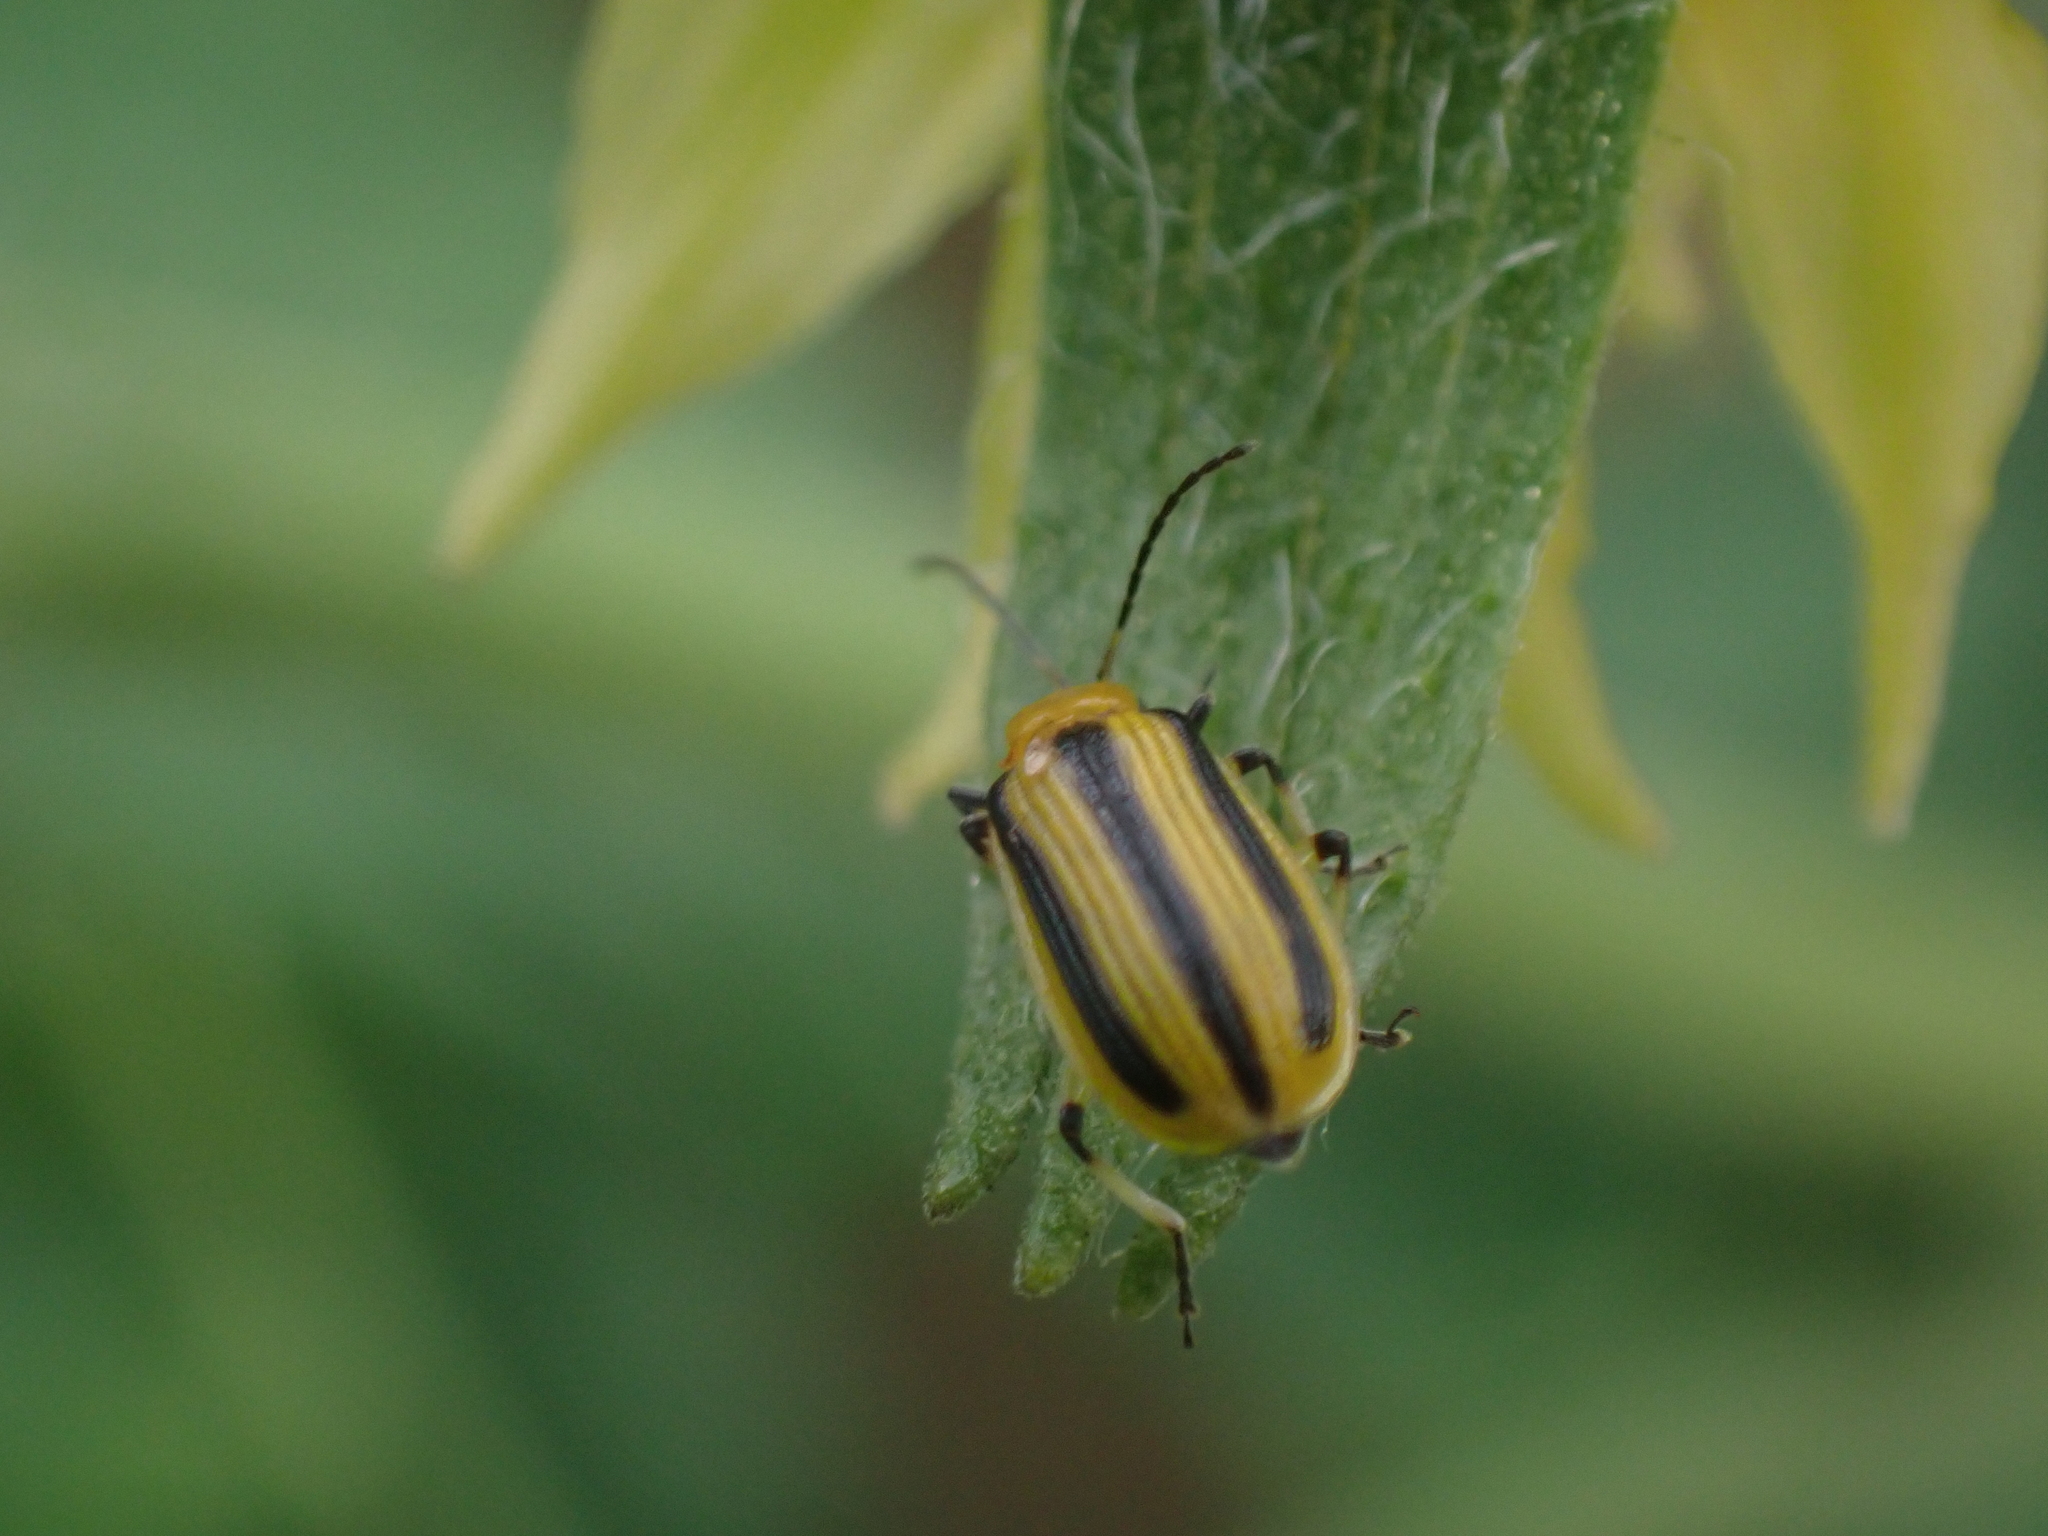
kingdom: Animalia
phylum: Arthropoda
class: Insecta
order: Coleoptera
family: Chrysomelidae
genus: Acalymma
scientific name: Acalymma vittatum
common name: Striped cucumber beetle
